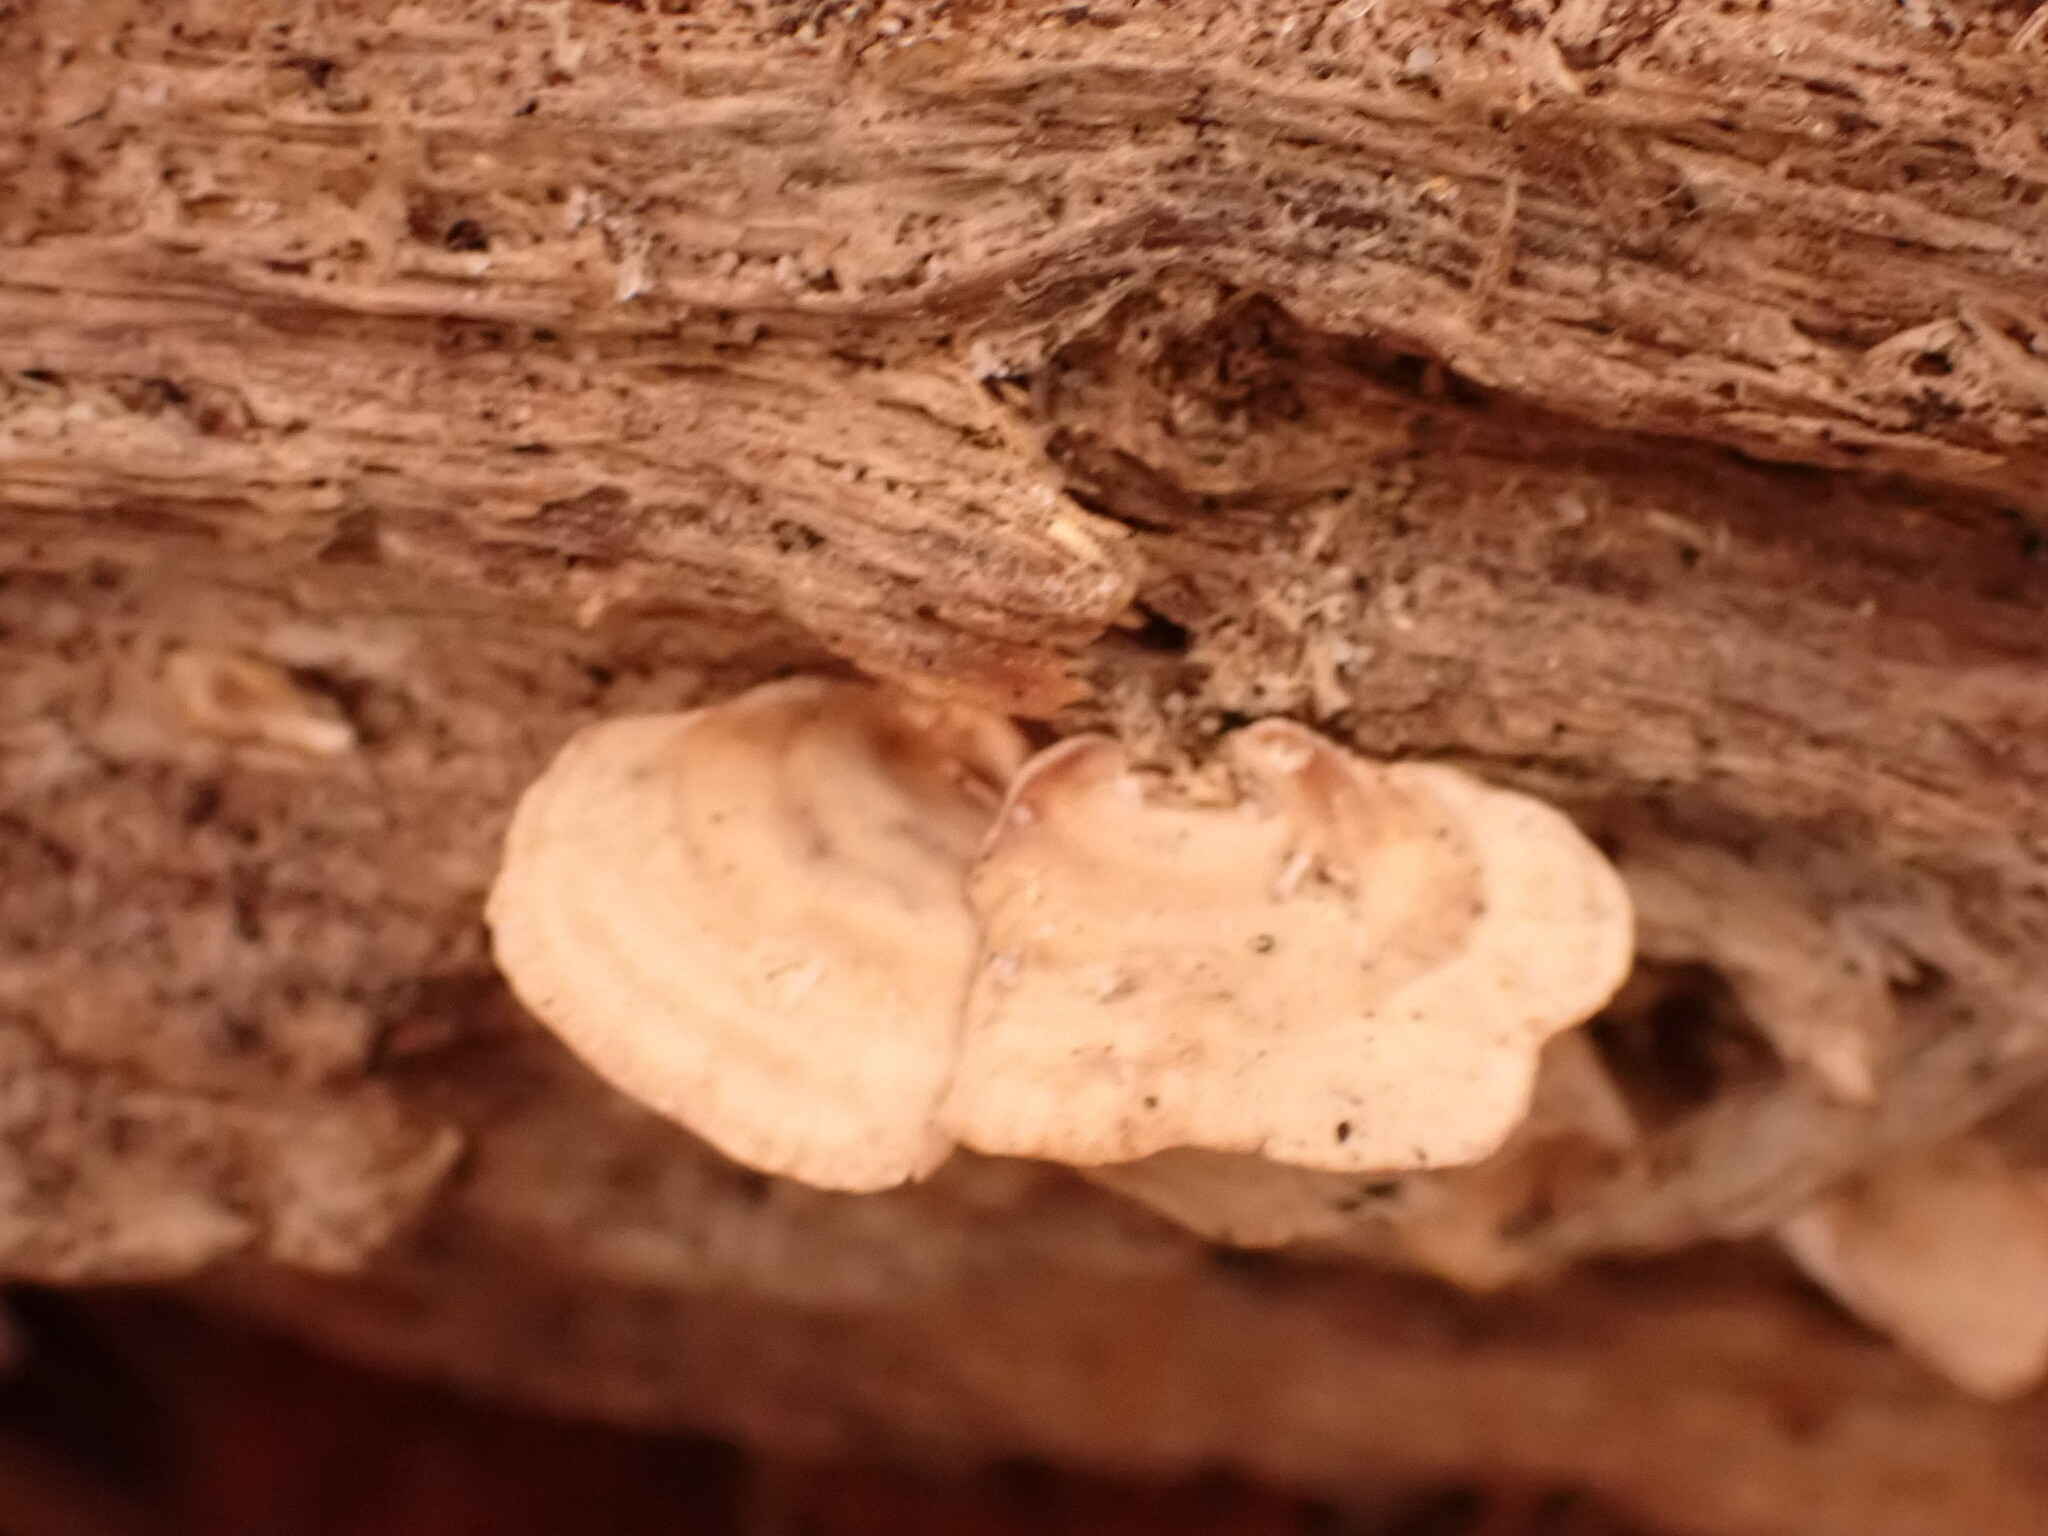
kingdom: Fungi
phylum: Basidiomycota
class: Agaricomycetes
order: Russulales
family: Stereaceae
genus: Stereum
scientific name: Stereum lobatum
